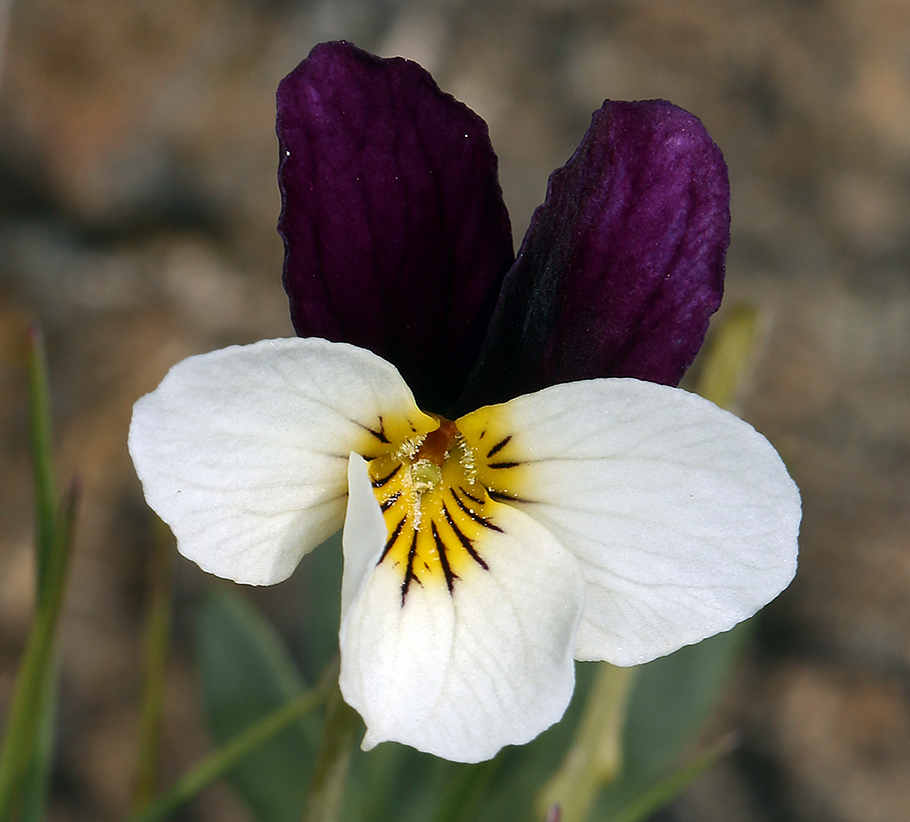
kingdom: Plantae
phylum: Tracheophyta
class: Magnoliopsida
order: Malpighiales
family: Violaceae
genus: Viola
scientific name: Viola hallii
